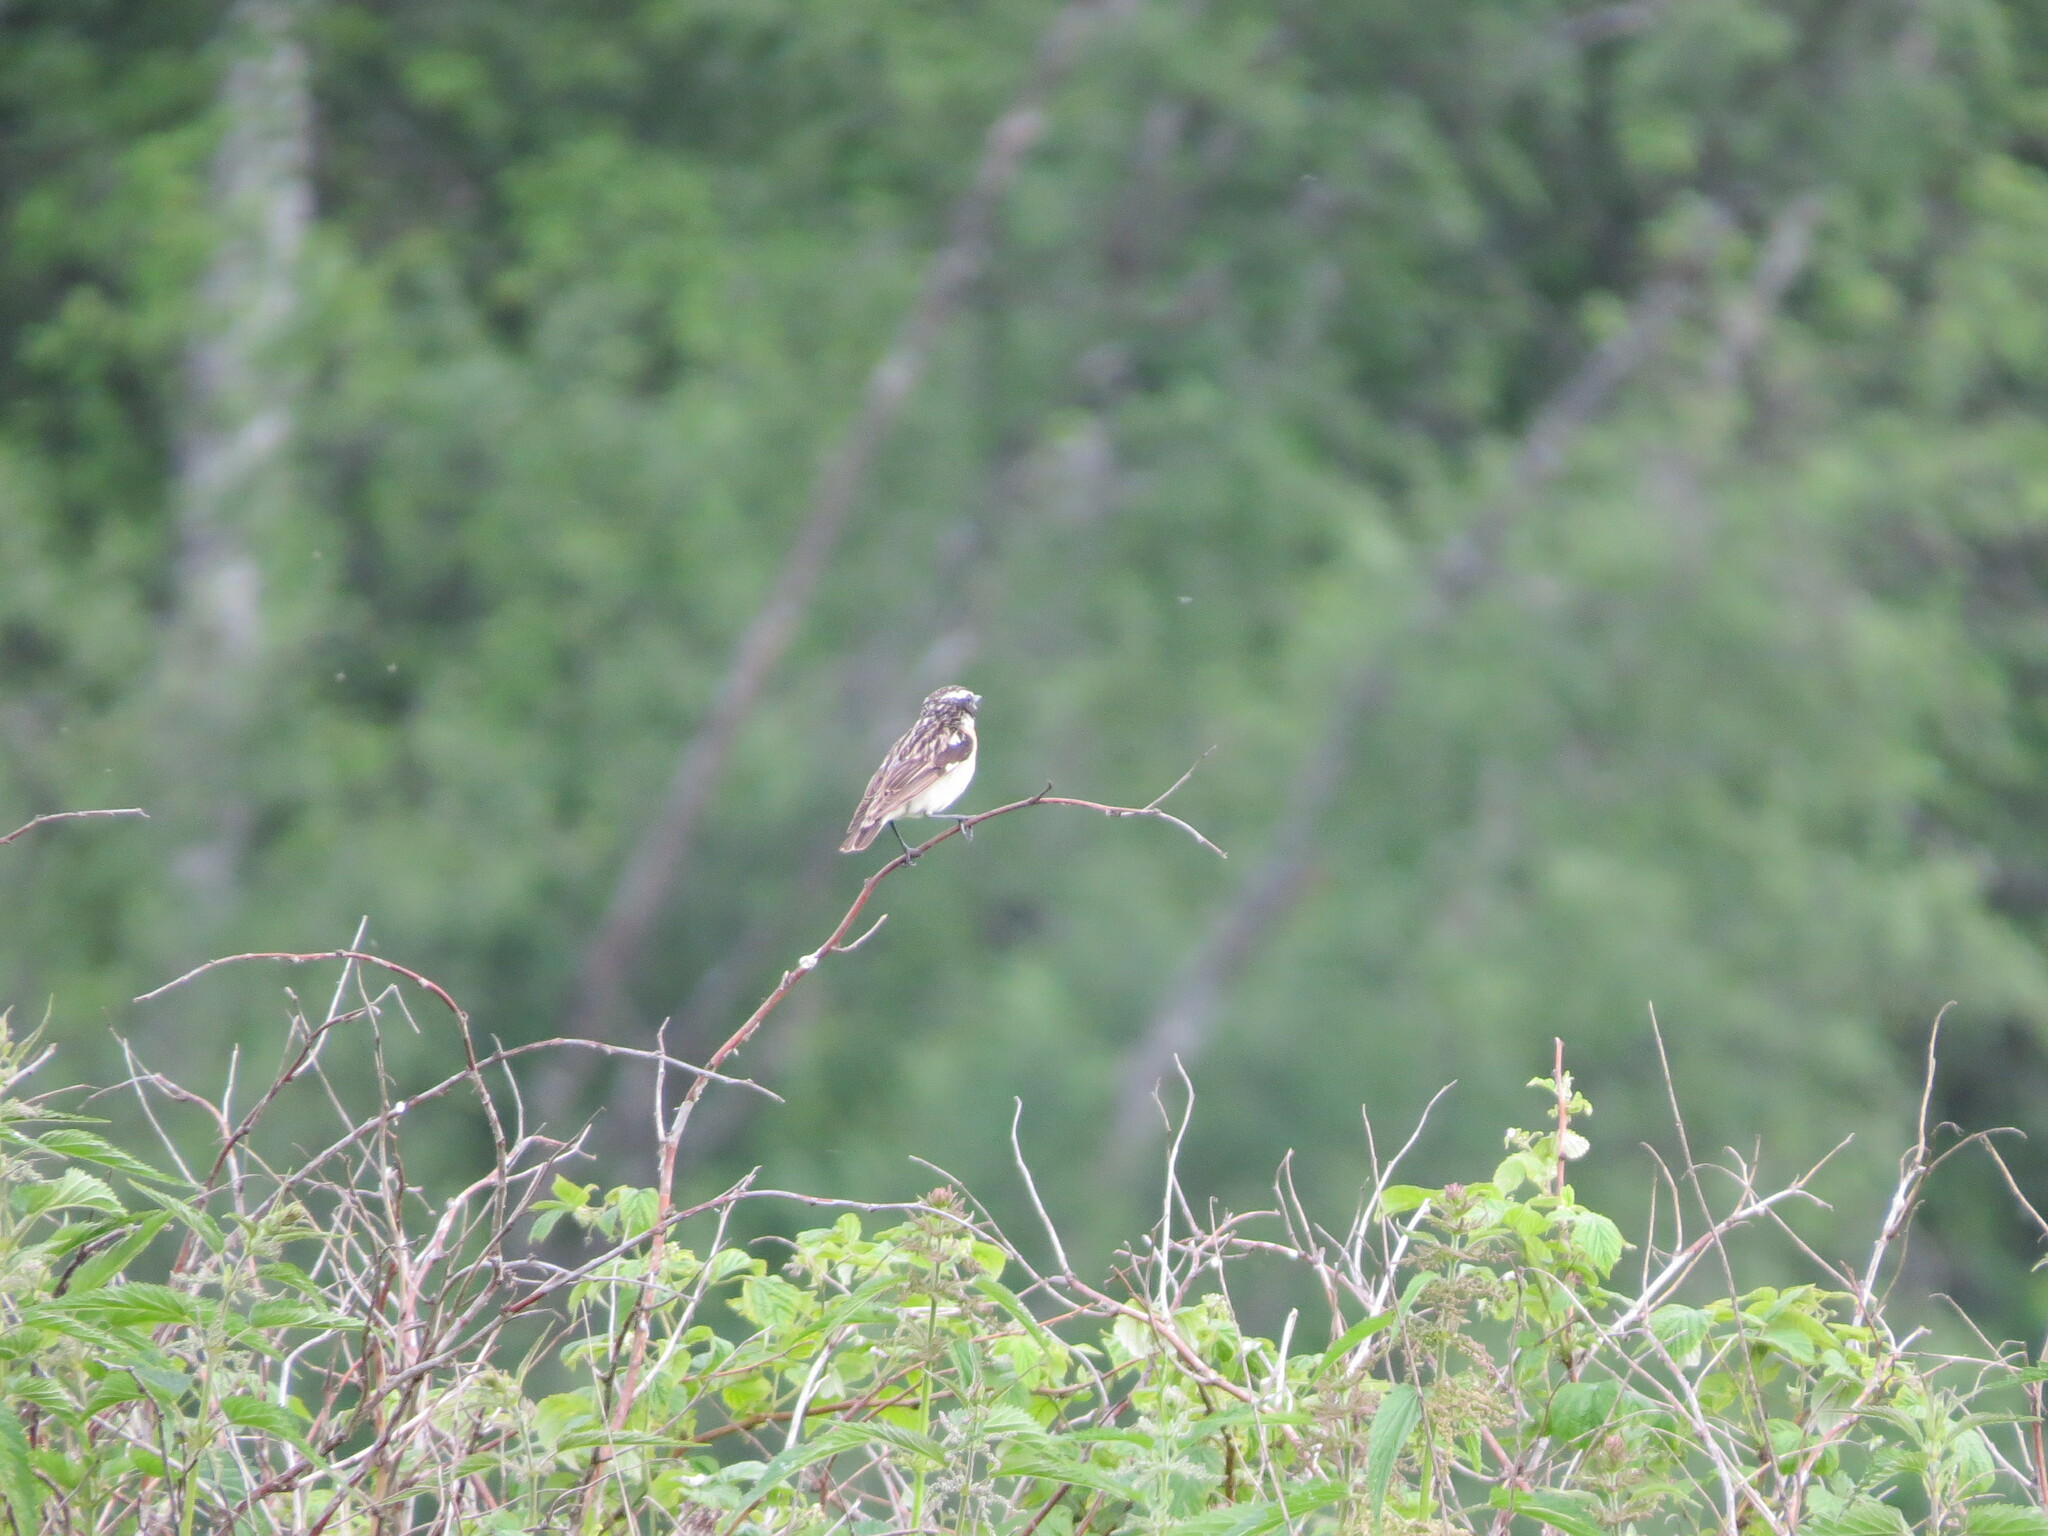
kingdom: Animalia
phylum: Chordata
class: Aves
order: Passeriformes
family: Muscicapidae
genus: Saxicola
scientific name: Saxicola rubetra
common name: Whinchat
